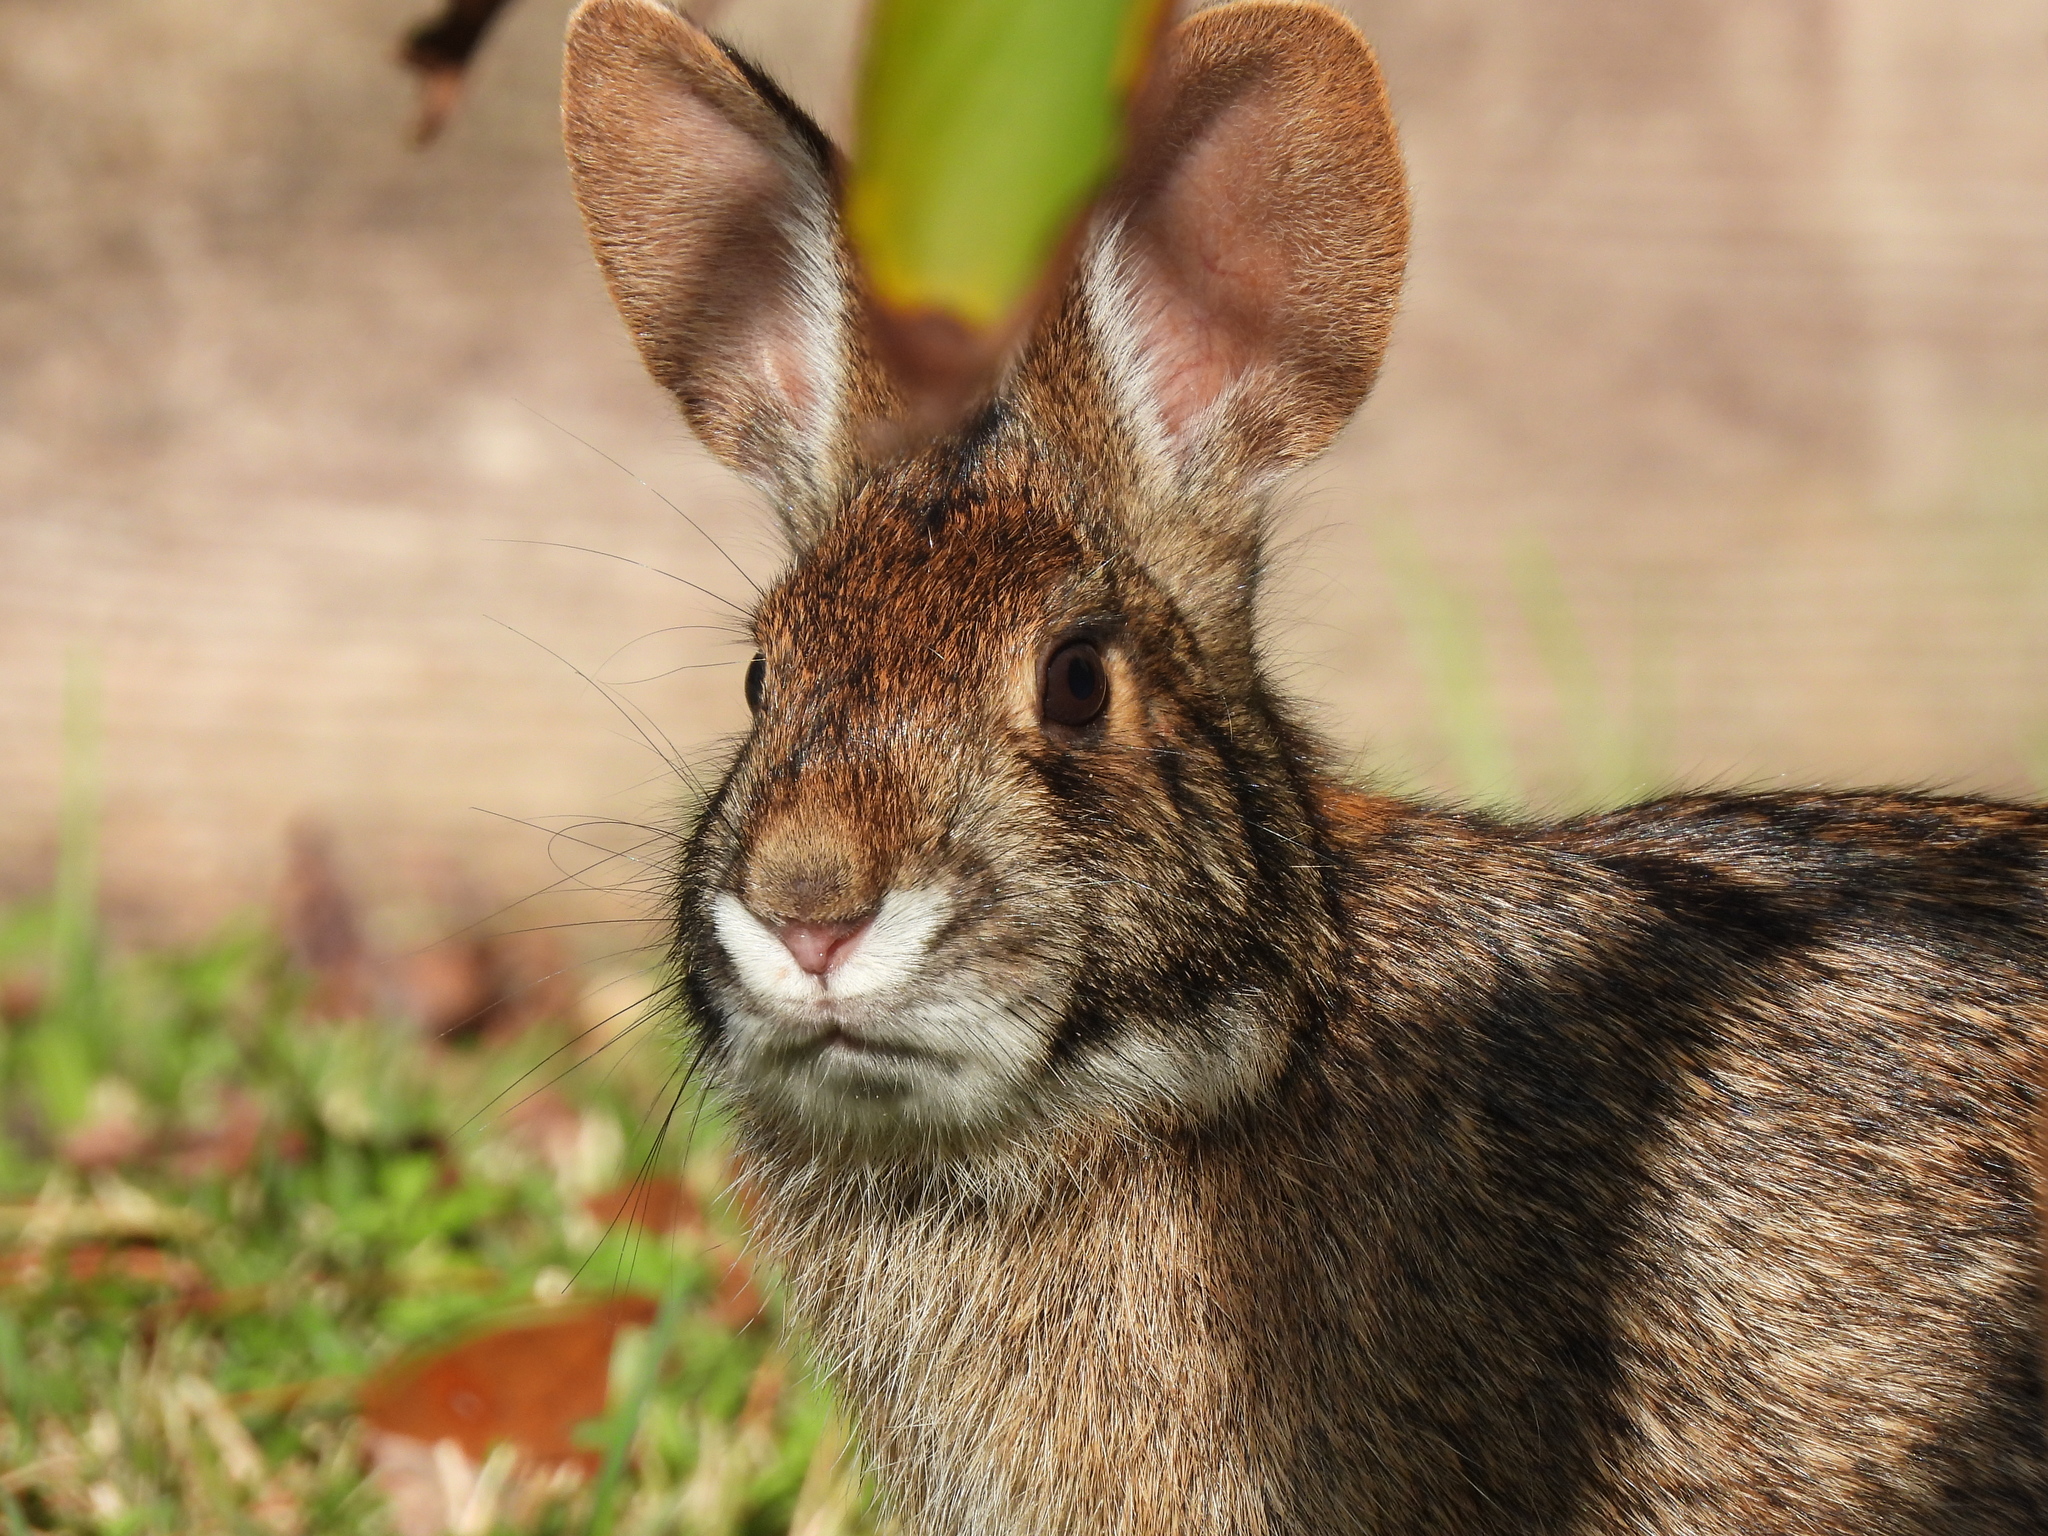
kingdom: Animalia
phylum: Chordata
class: Mammalia
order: Lagomorpha
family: Leporidae
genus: Sylvilagus
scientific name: Sylvilagus aquaticus
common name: Swamp rabbit
